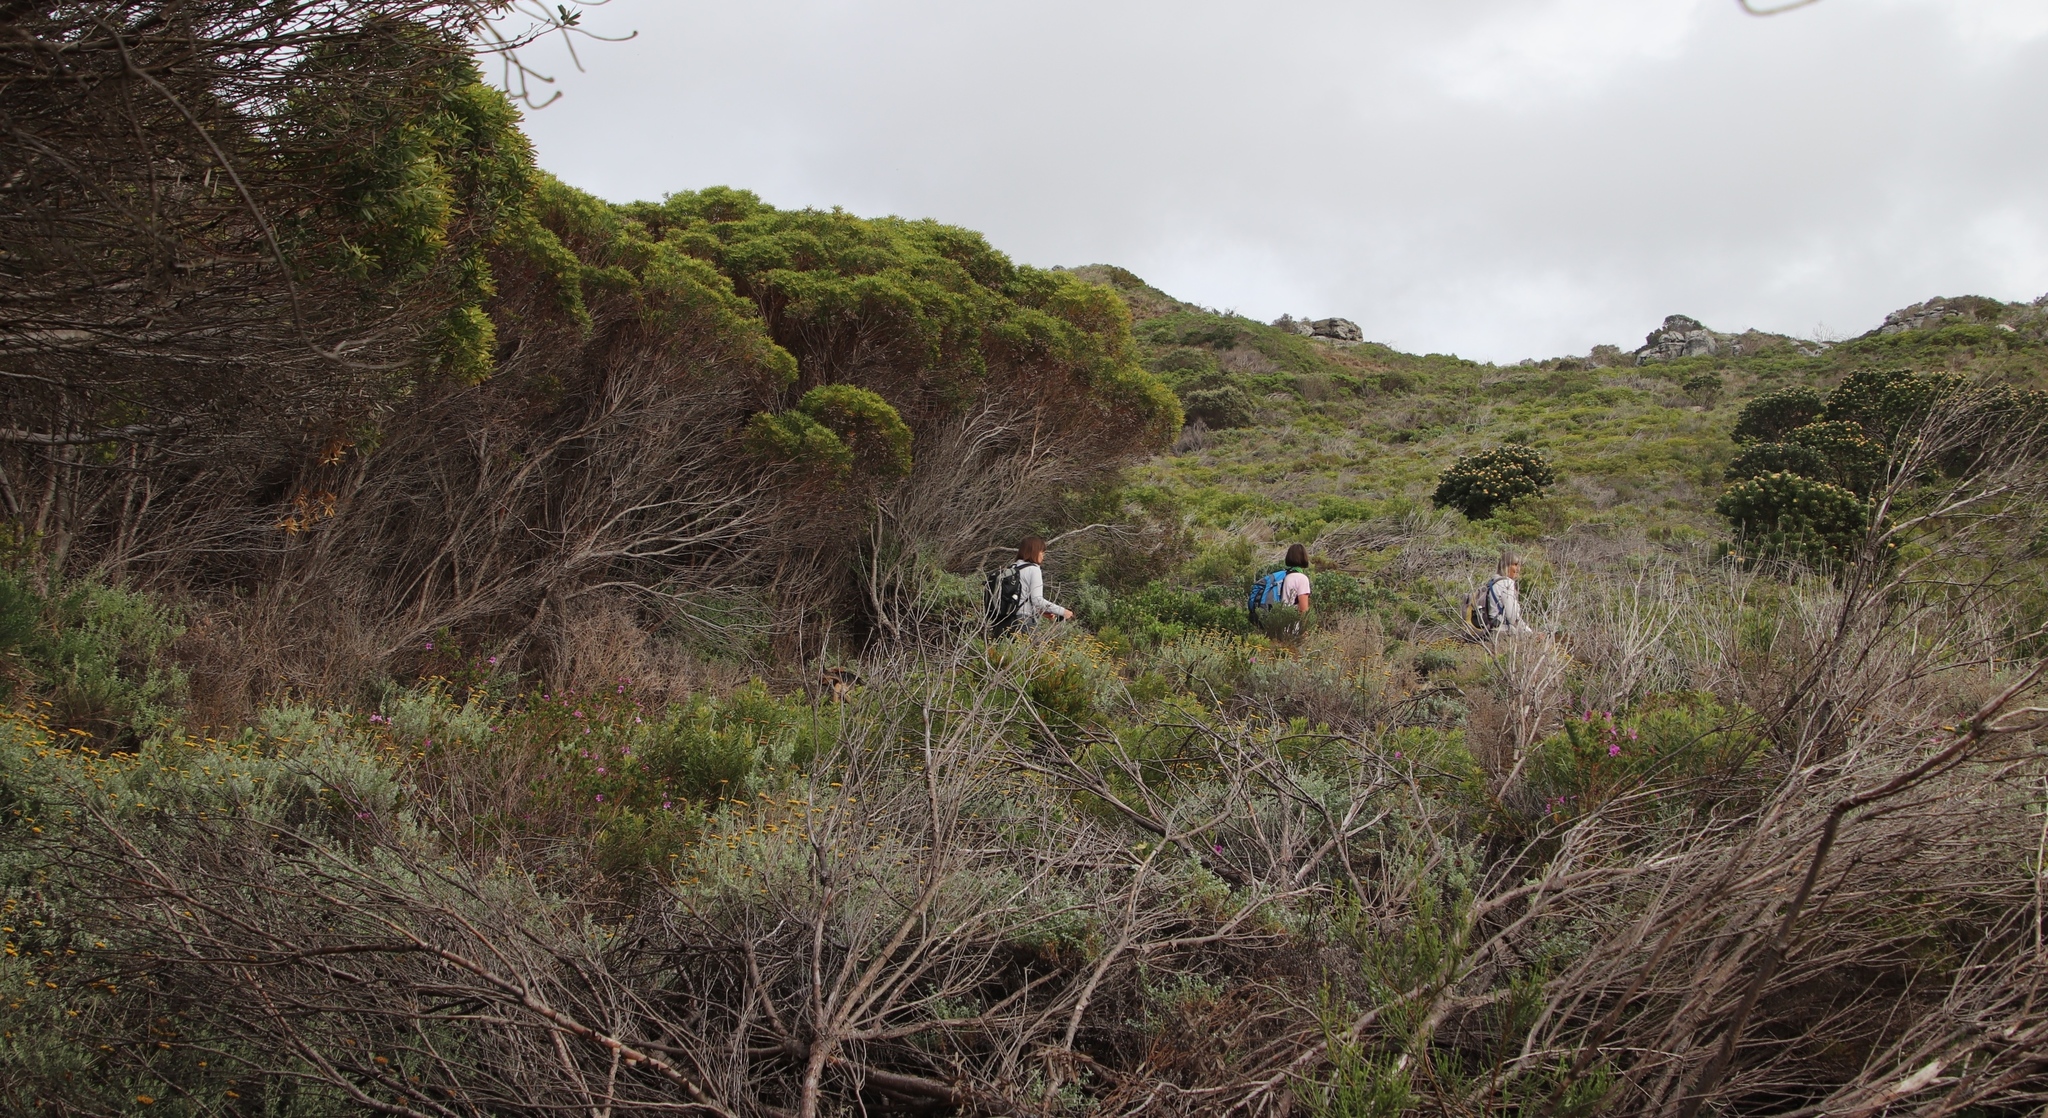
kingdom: Plantae
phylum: Tracheophyta
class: Magnoliopsida
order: Proteales
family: Proteaceae
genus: Leucadendron
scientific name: Leucadendron coniferum
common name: Dune conebush
